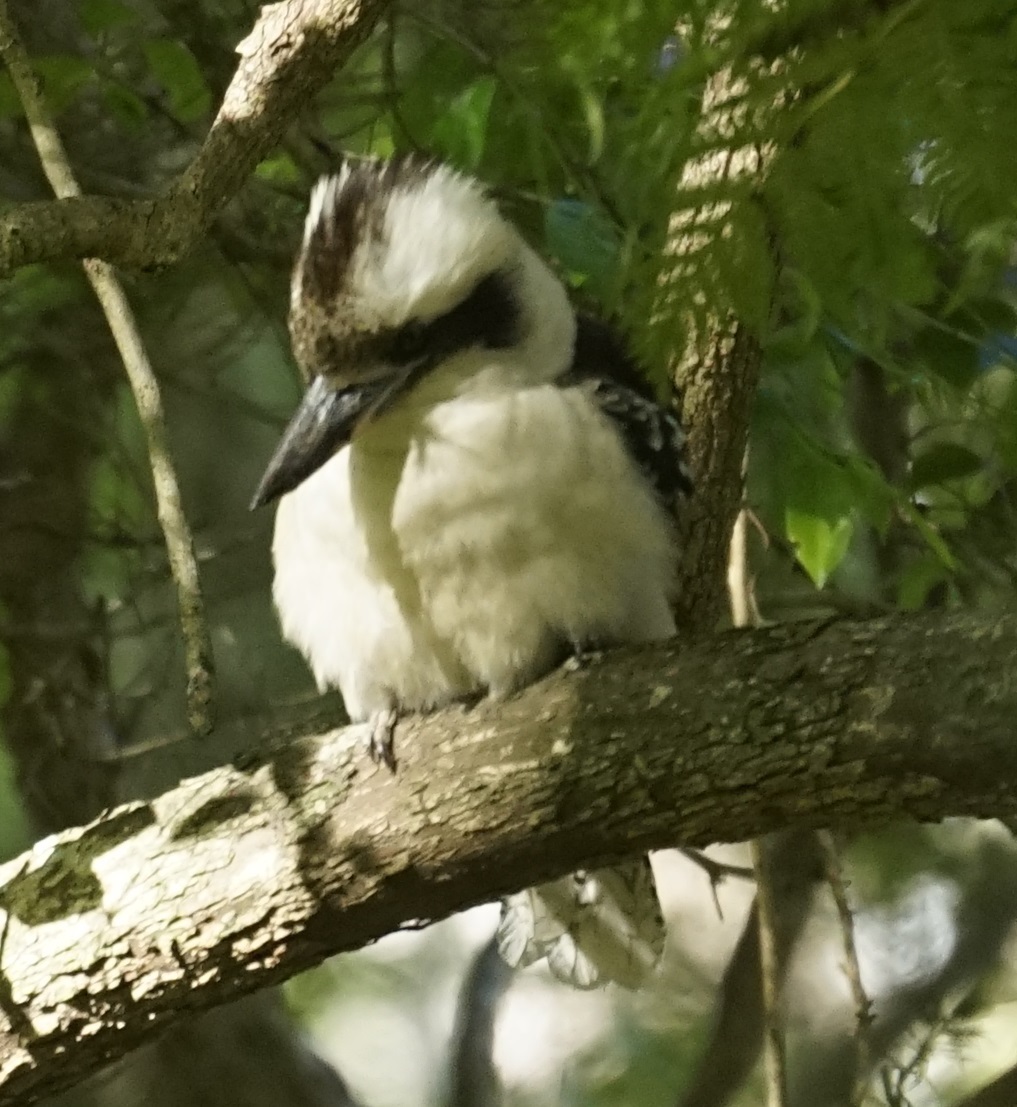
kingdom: Animalia
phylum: Chordata
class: Aves
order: Coraciiformes
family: Alcedinidae
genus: Dacelo
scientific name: Dacelo novaeguineae
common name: Laughing kookaburra
